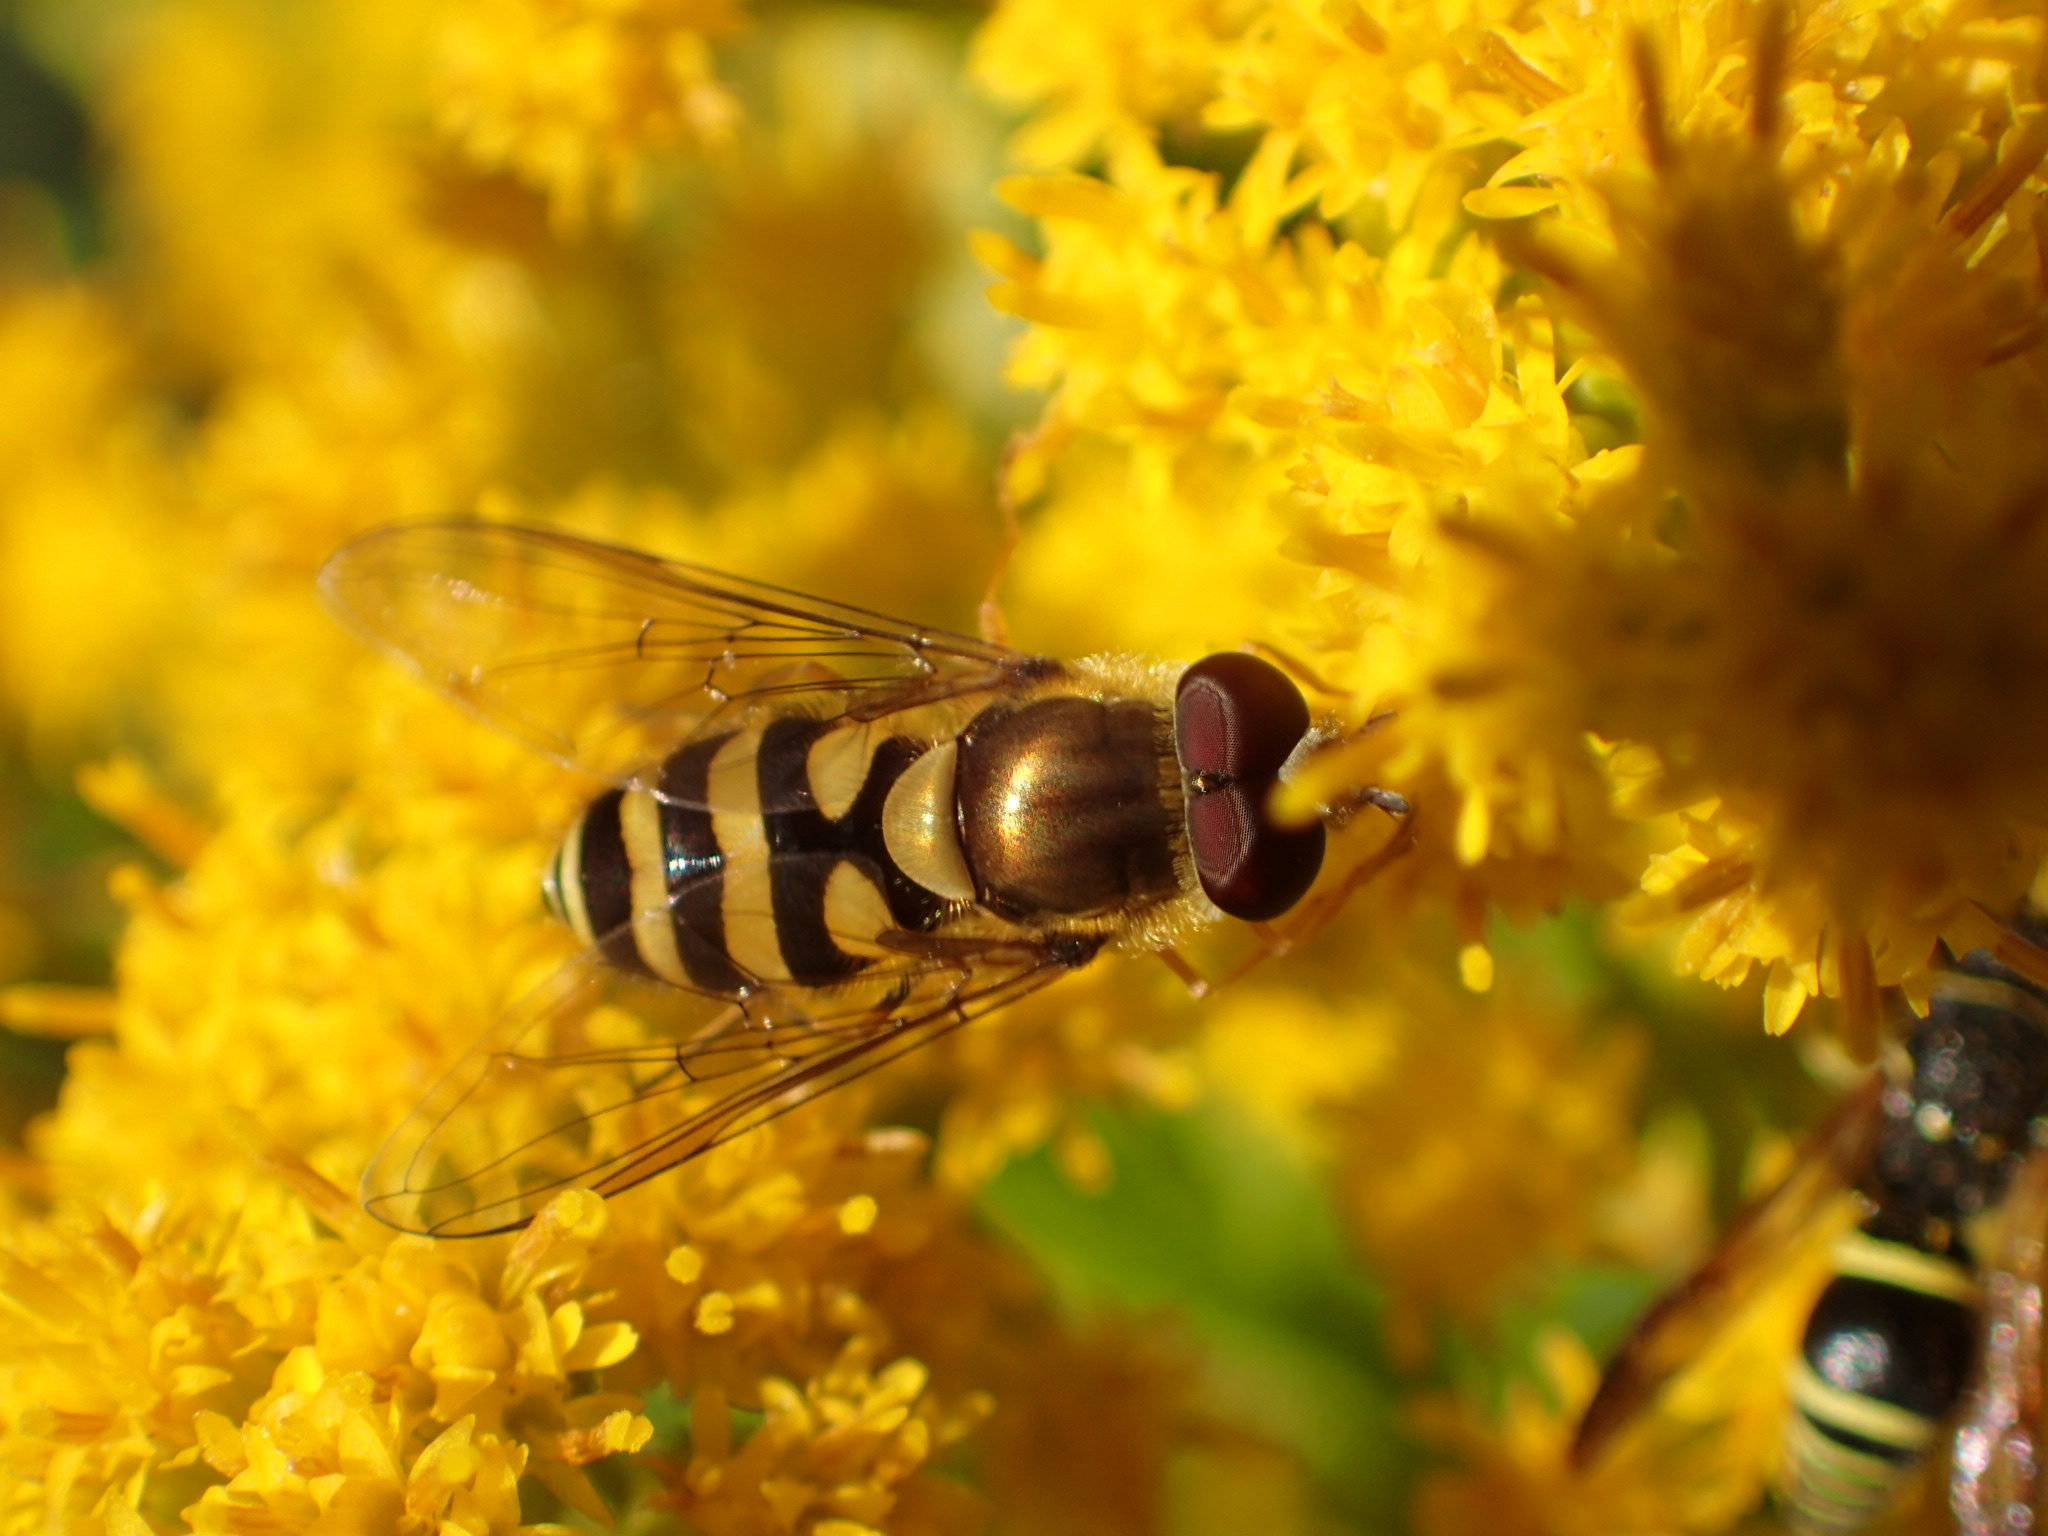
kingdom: Animalia
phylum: Arthropoda
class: Insecta
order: Diptera
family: Syrphidae
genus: Syrphus
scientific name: Syrphus
